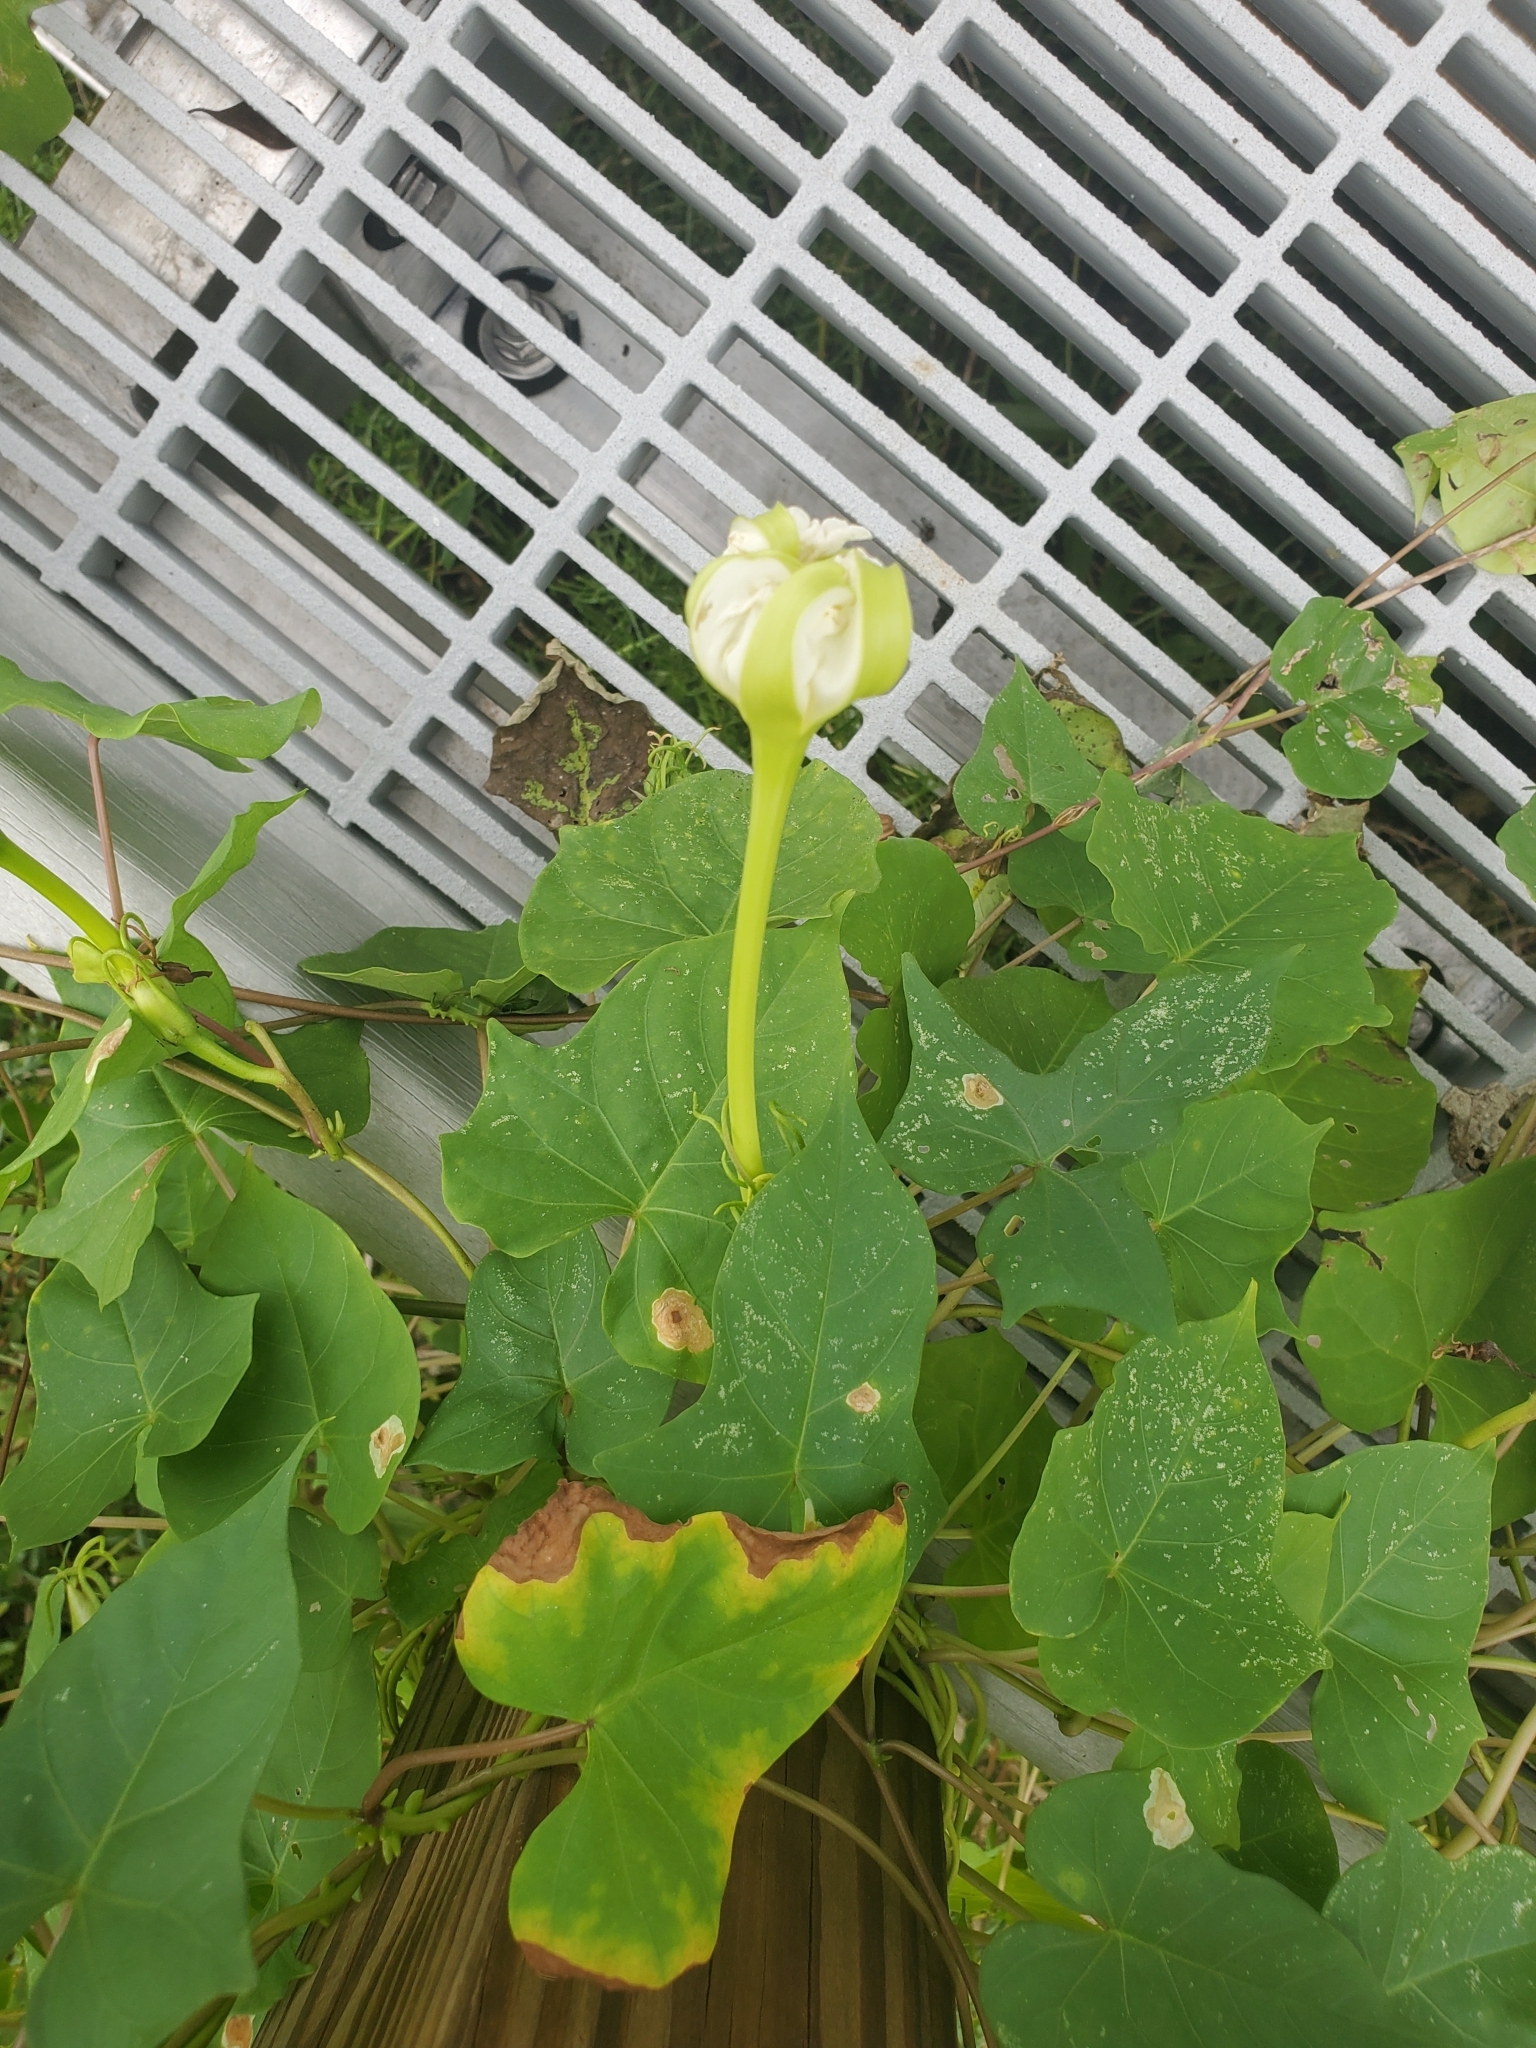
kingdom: Plantae
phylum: Tracheophyta
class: Magnoliopsida
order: Solanales
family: Convolvulaceae
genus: Ipomoea
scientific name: Ipomoea alba
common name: Moonflower
